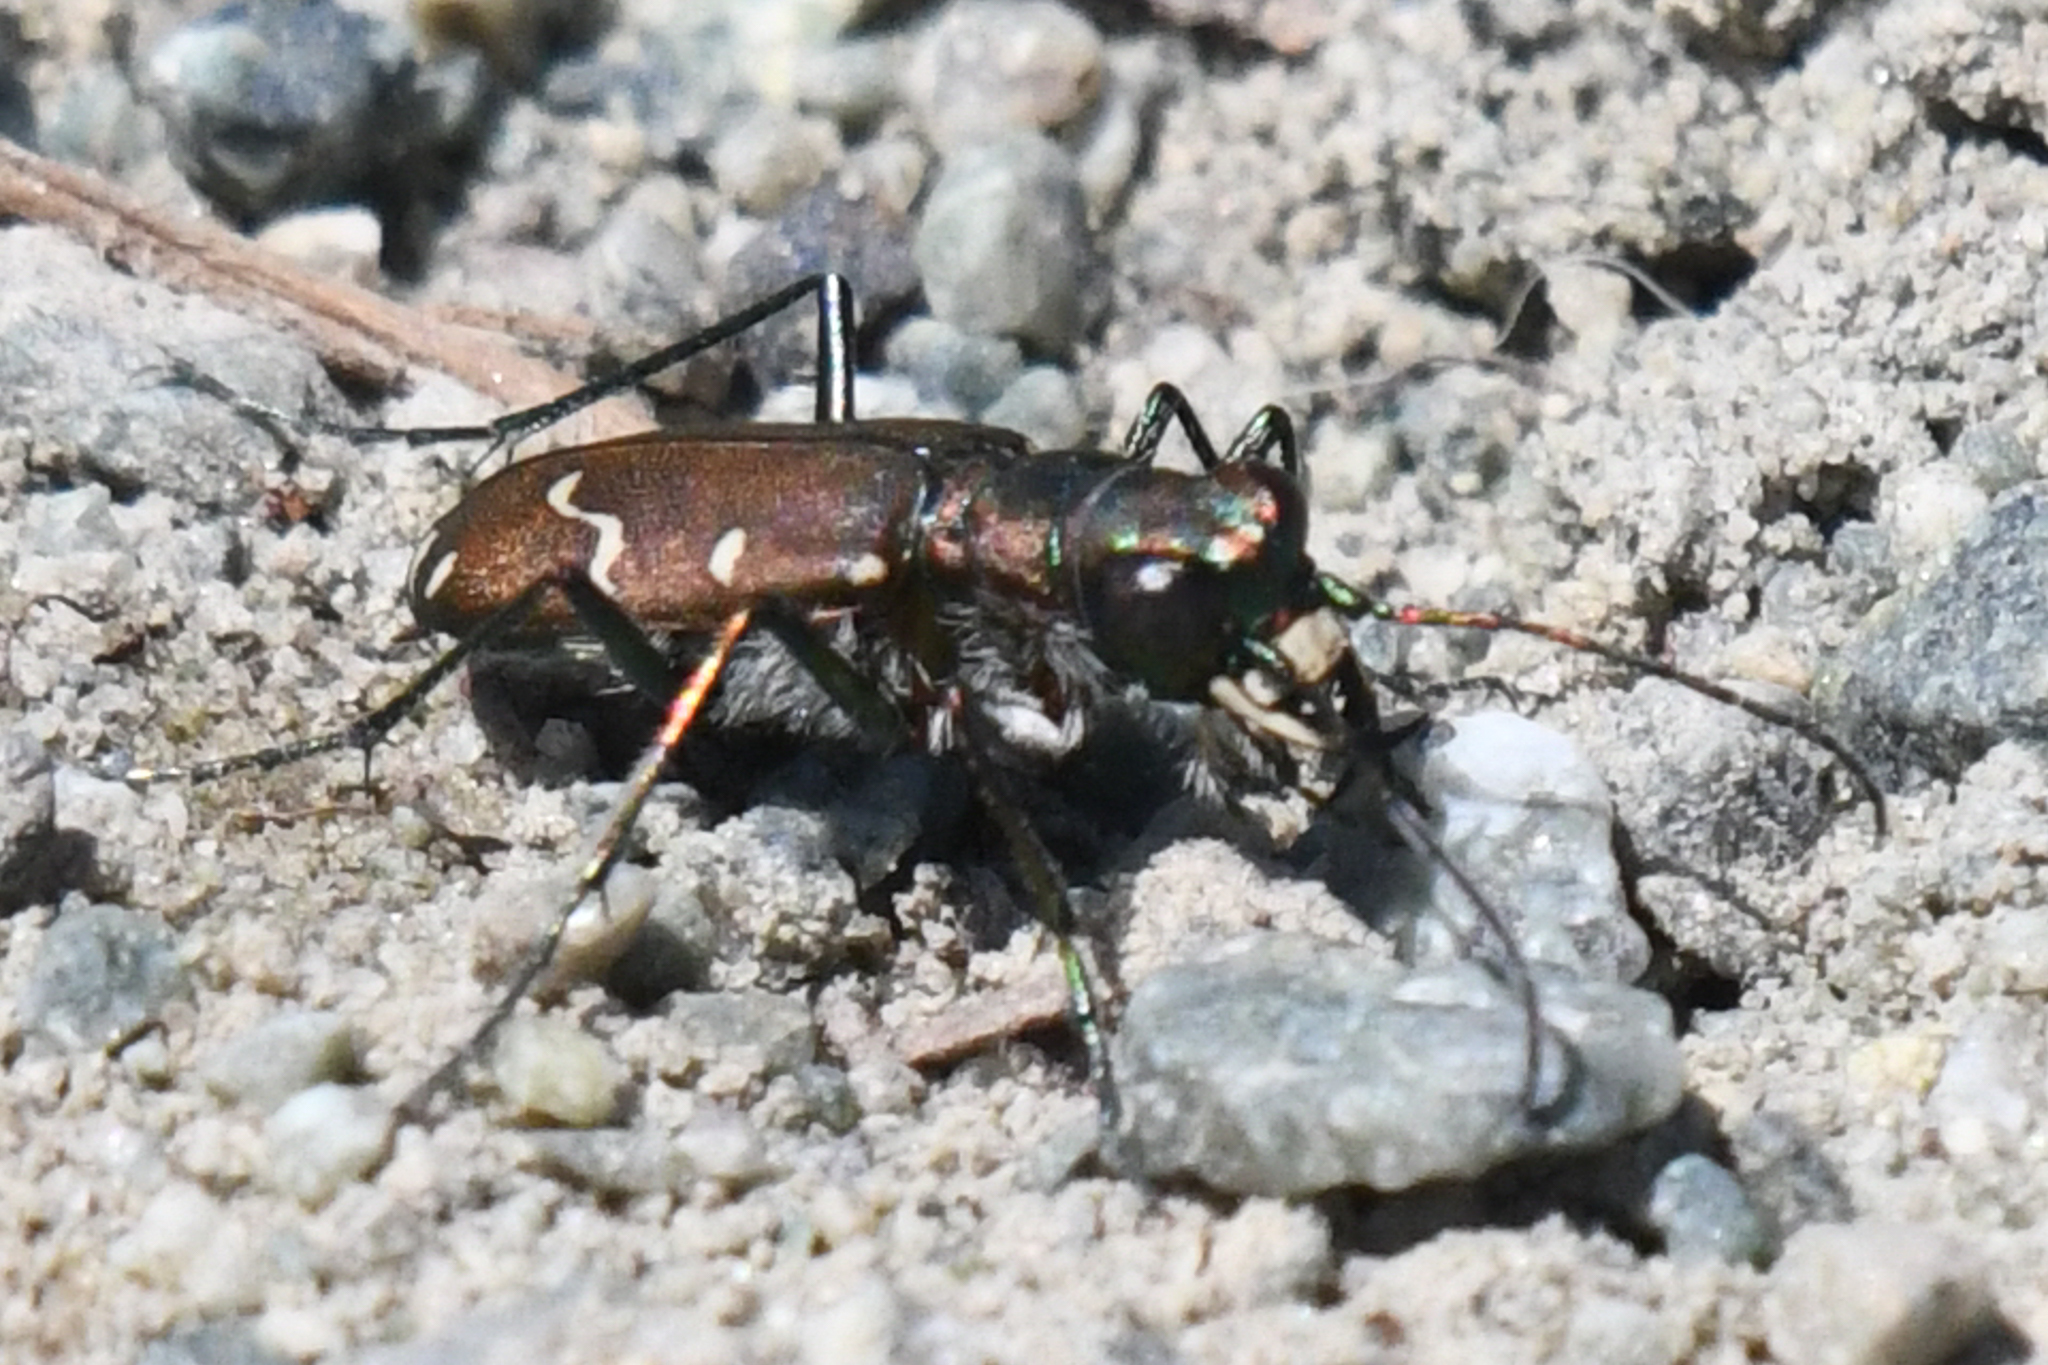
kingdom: Animalia
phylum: Arthropoda
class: Insecta
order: Coleoptera
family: Carabidae
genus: Cicindela
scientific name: Cicindela depressula
